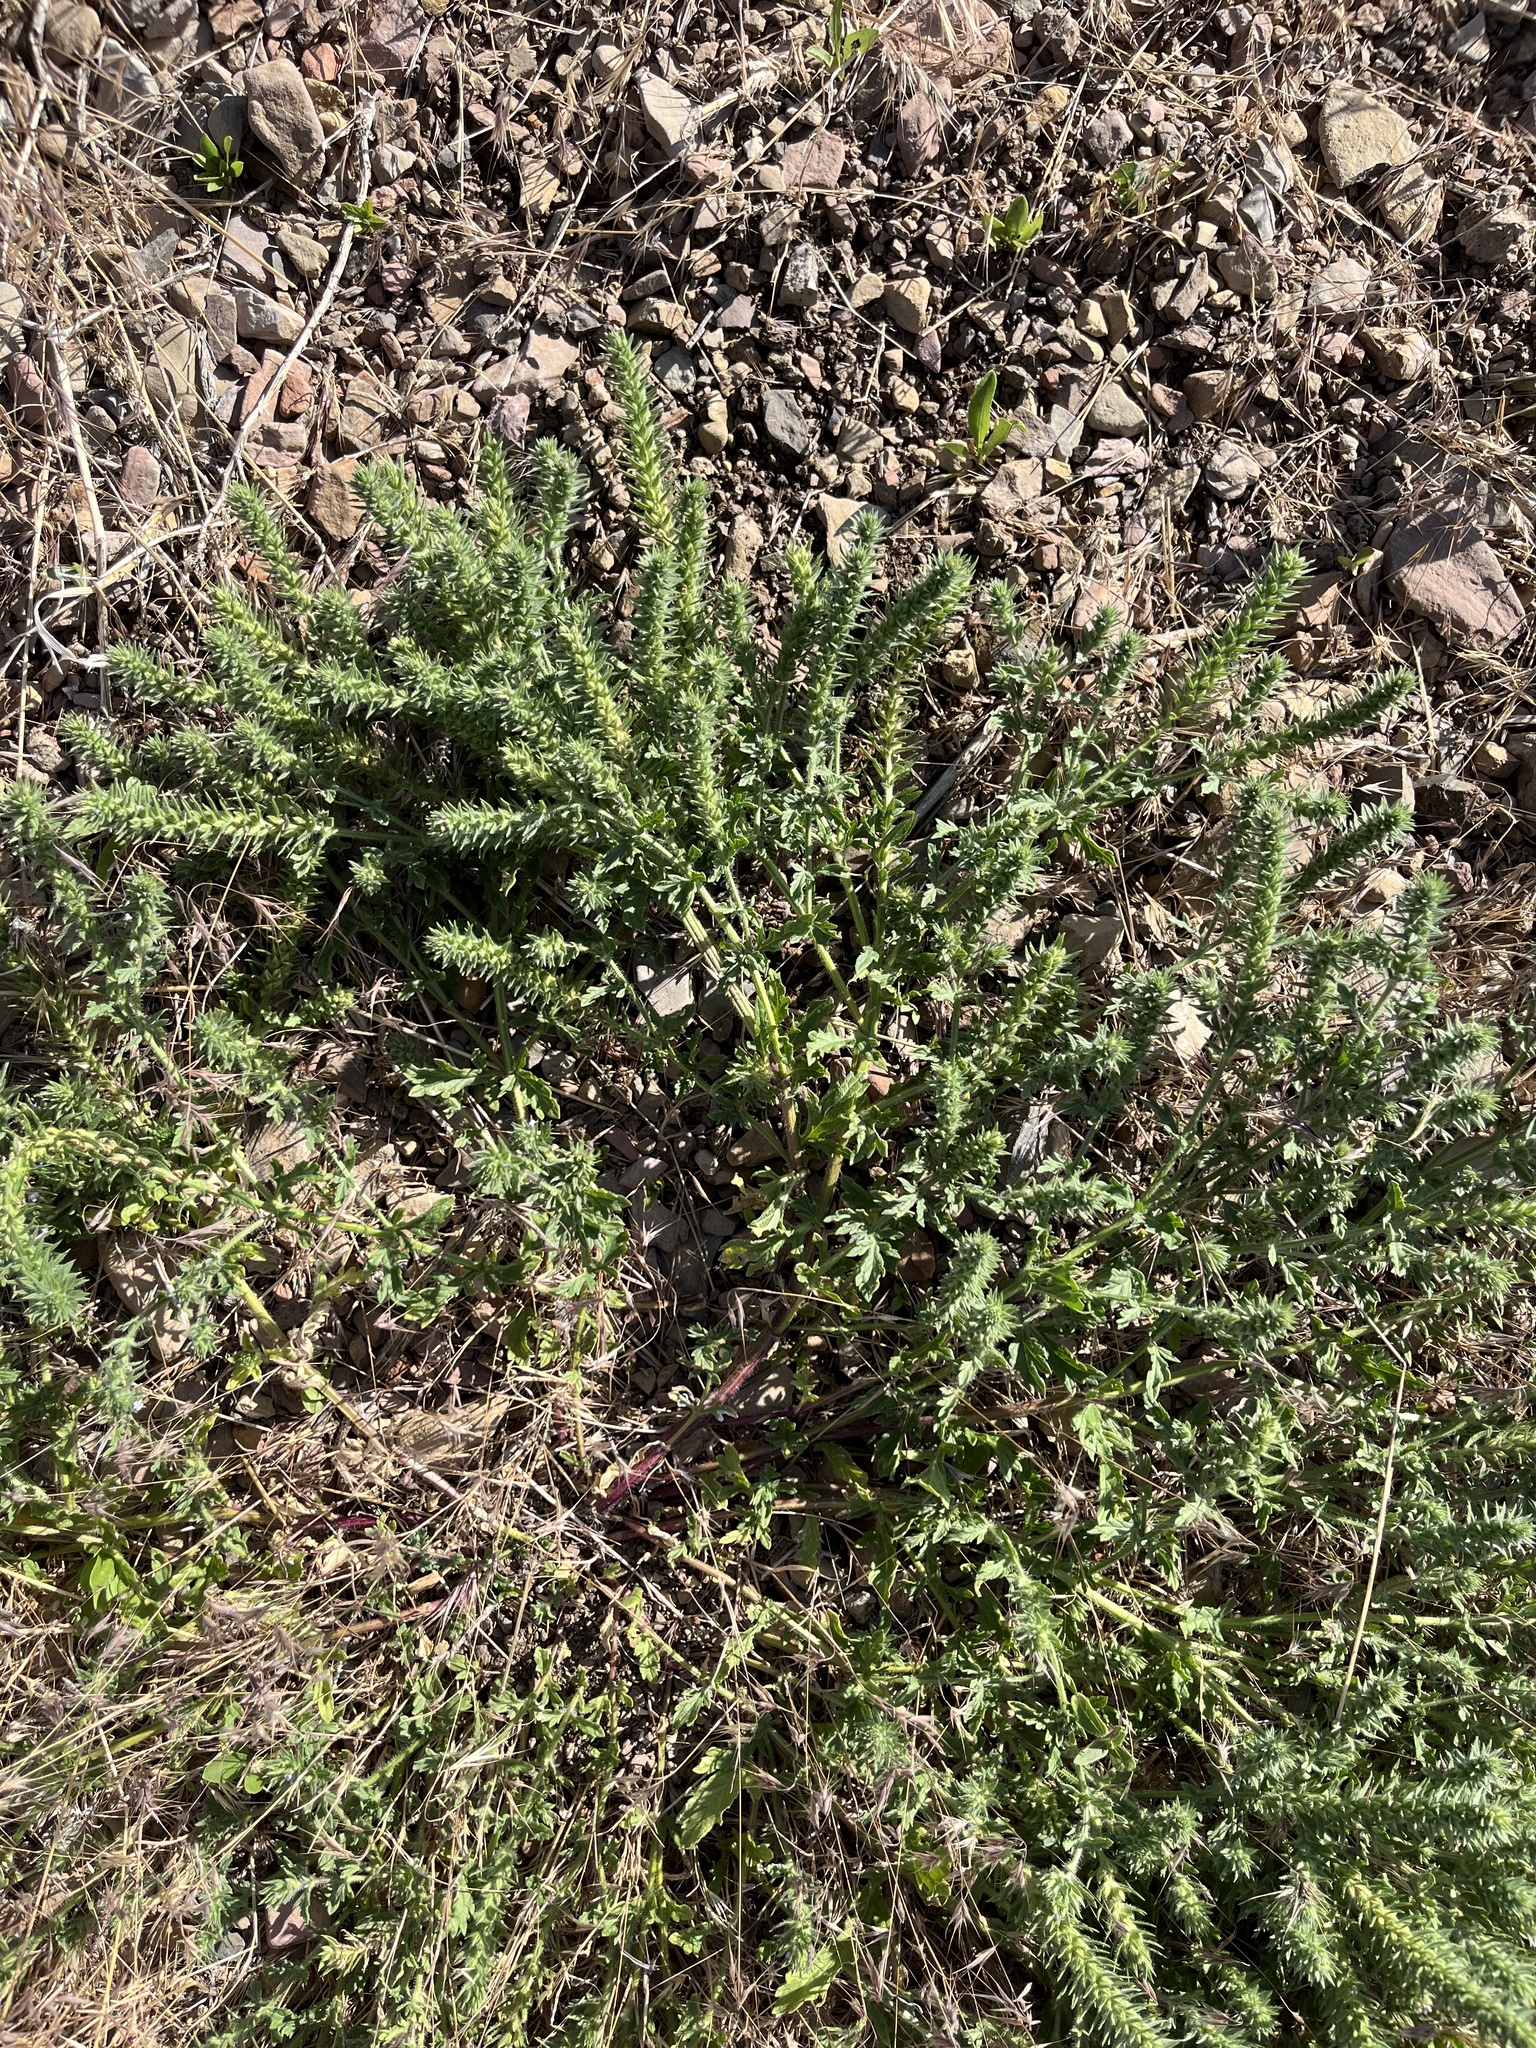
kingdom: Plantae
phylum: Tracheophyta
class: Magnoliopsida
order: Lamiales
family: Verbenaceae
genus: Verbena
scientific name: Verbena bracteata
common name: Bracted vervain
